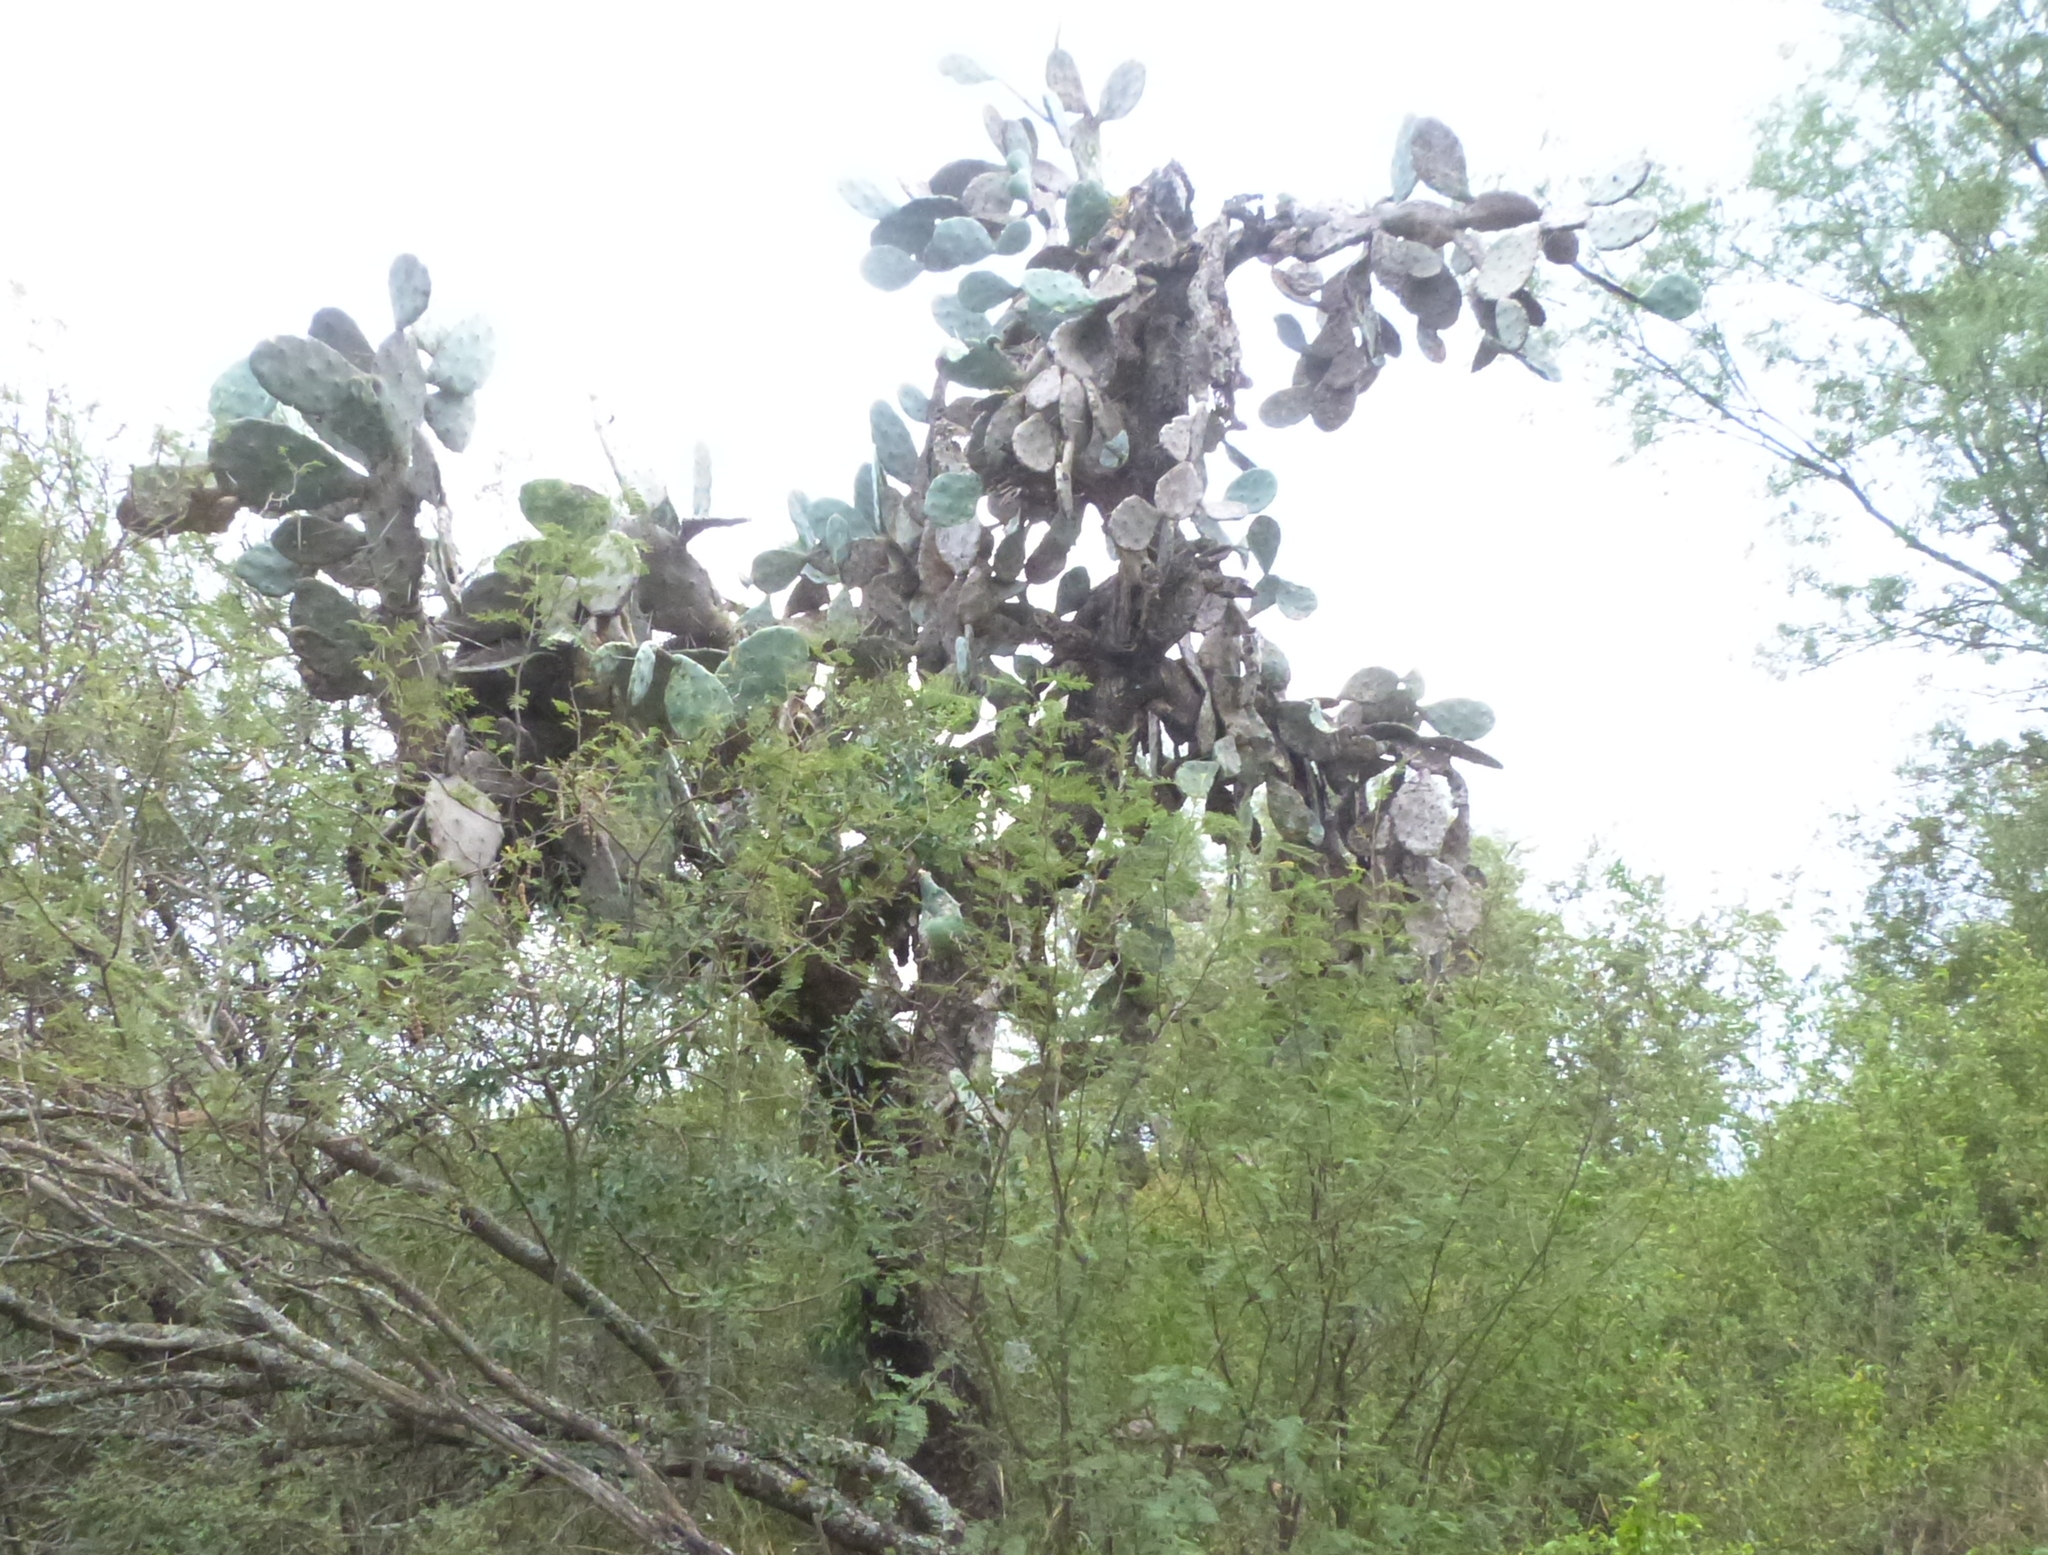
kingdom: Plantae
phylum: Tracheophyta
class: Magnoliopsida
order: Caryophyllales
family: Cactaceae
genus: Opuntia
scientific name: Opuntia quimilo
